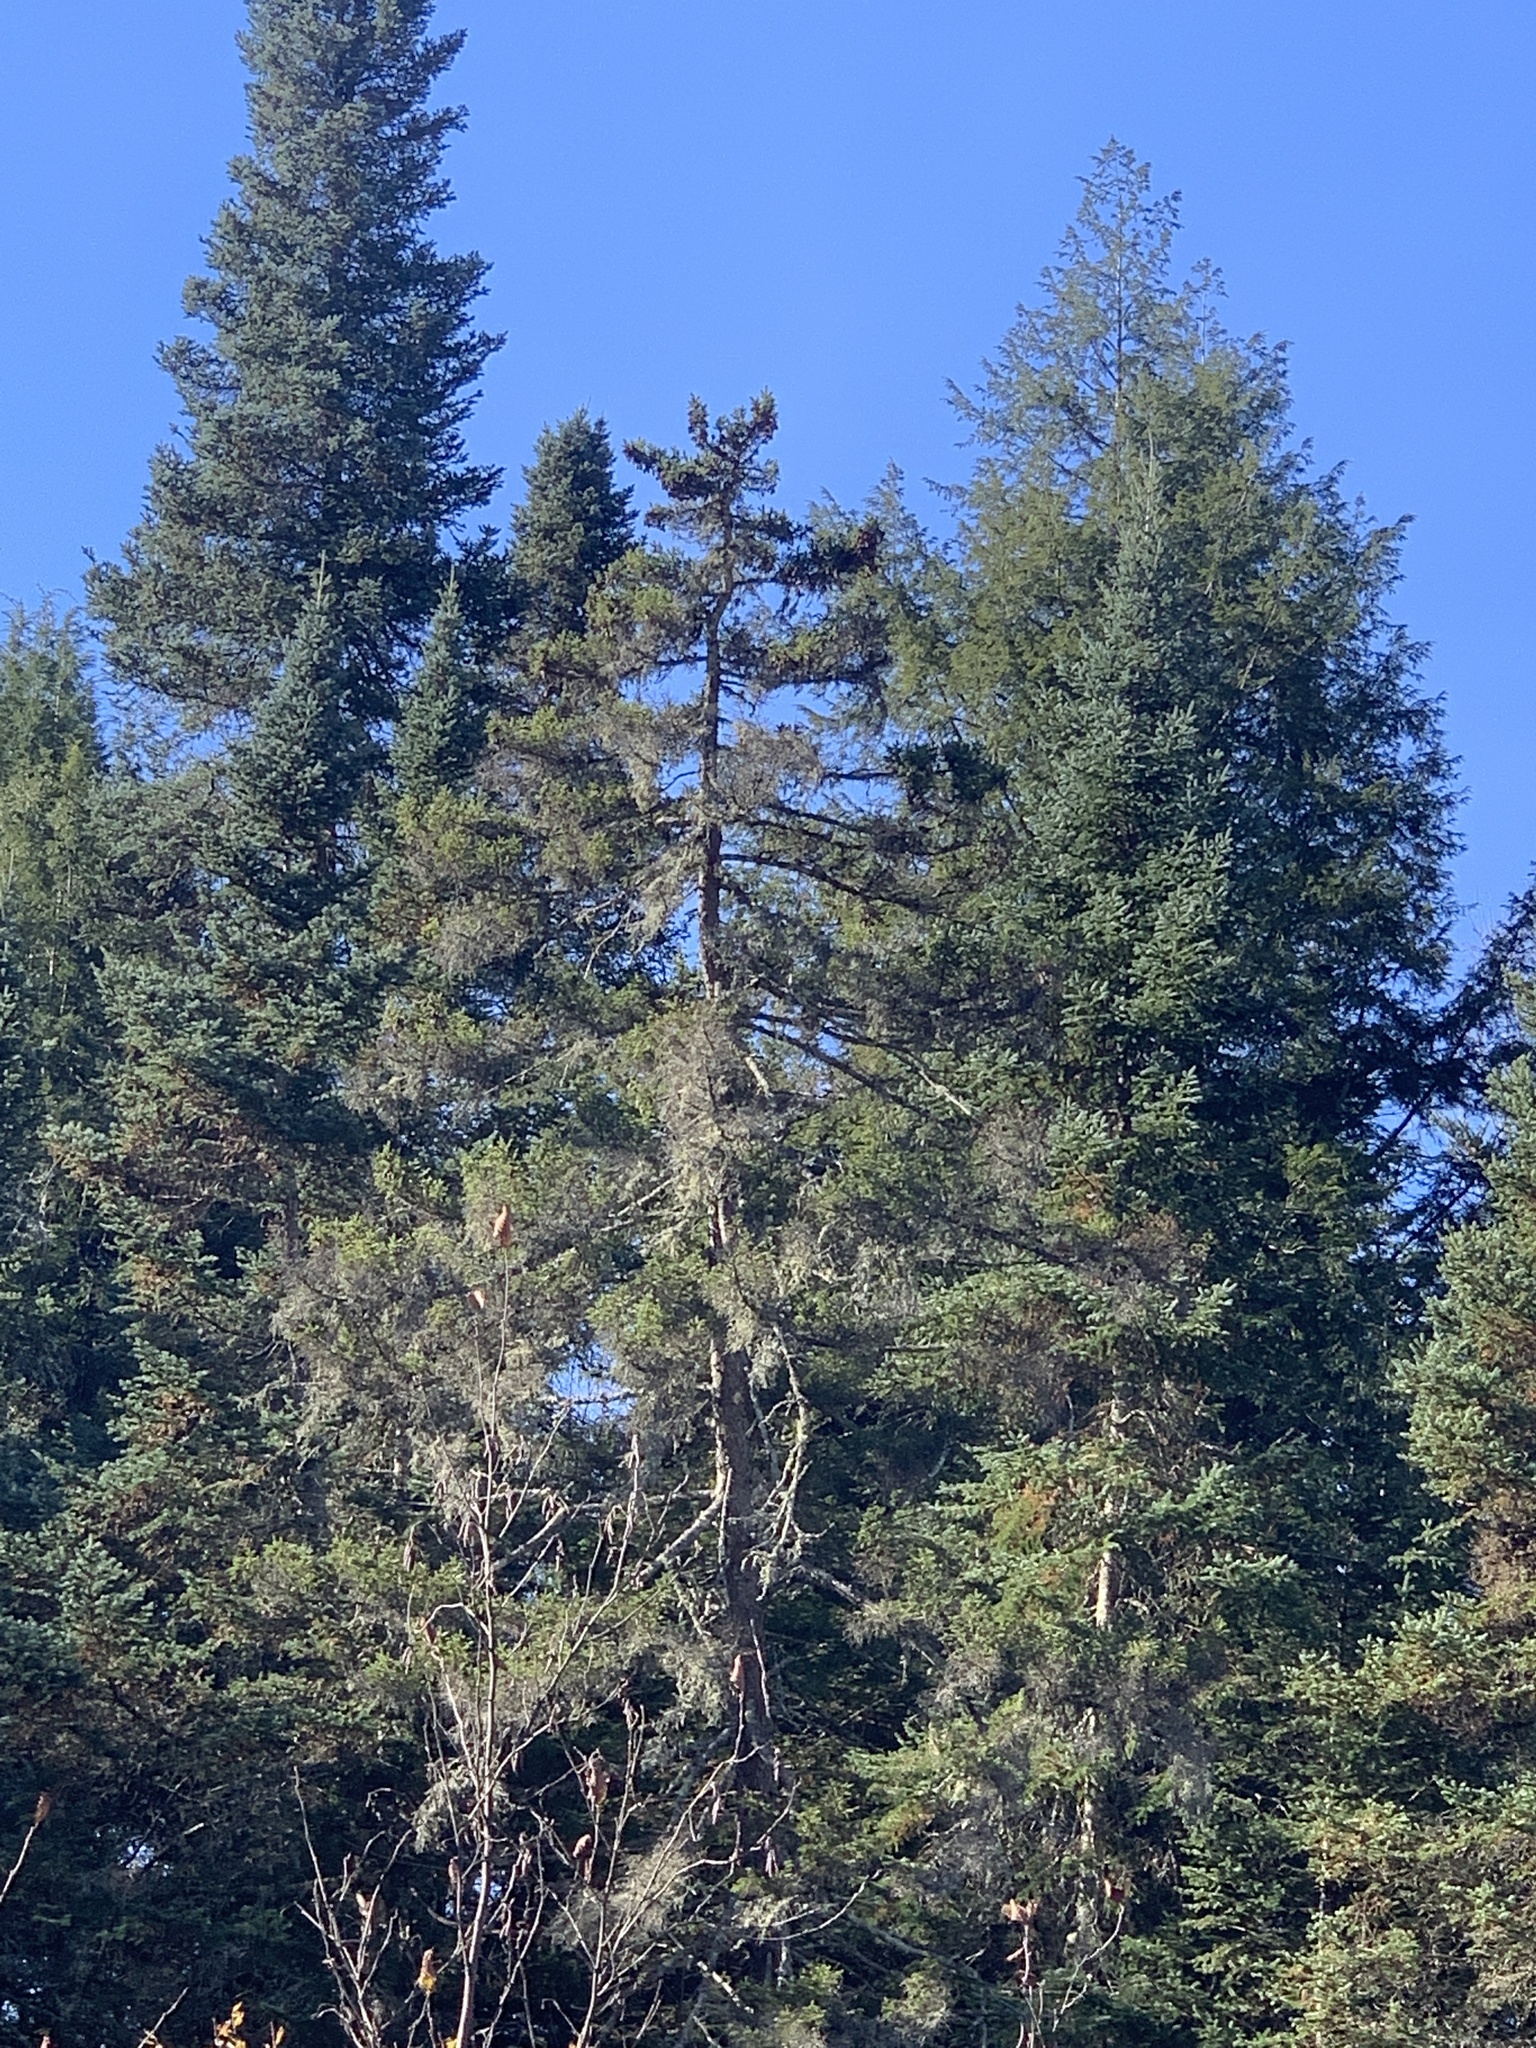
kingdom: Plantae
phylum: Tracheophyta
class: Pinopsida
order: Pinales
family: Pinaceae
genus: Picea
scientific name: Picea rubens
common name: Red spruce
